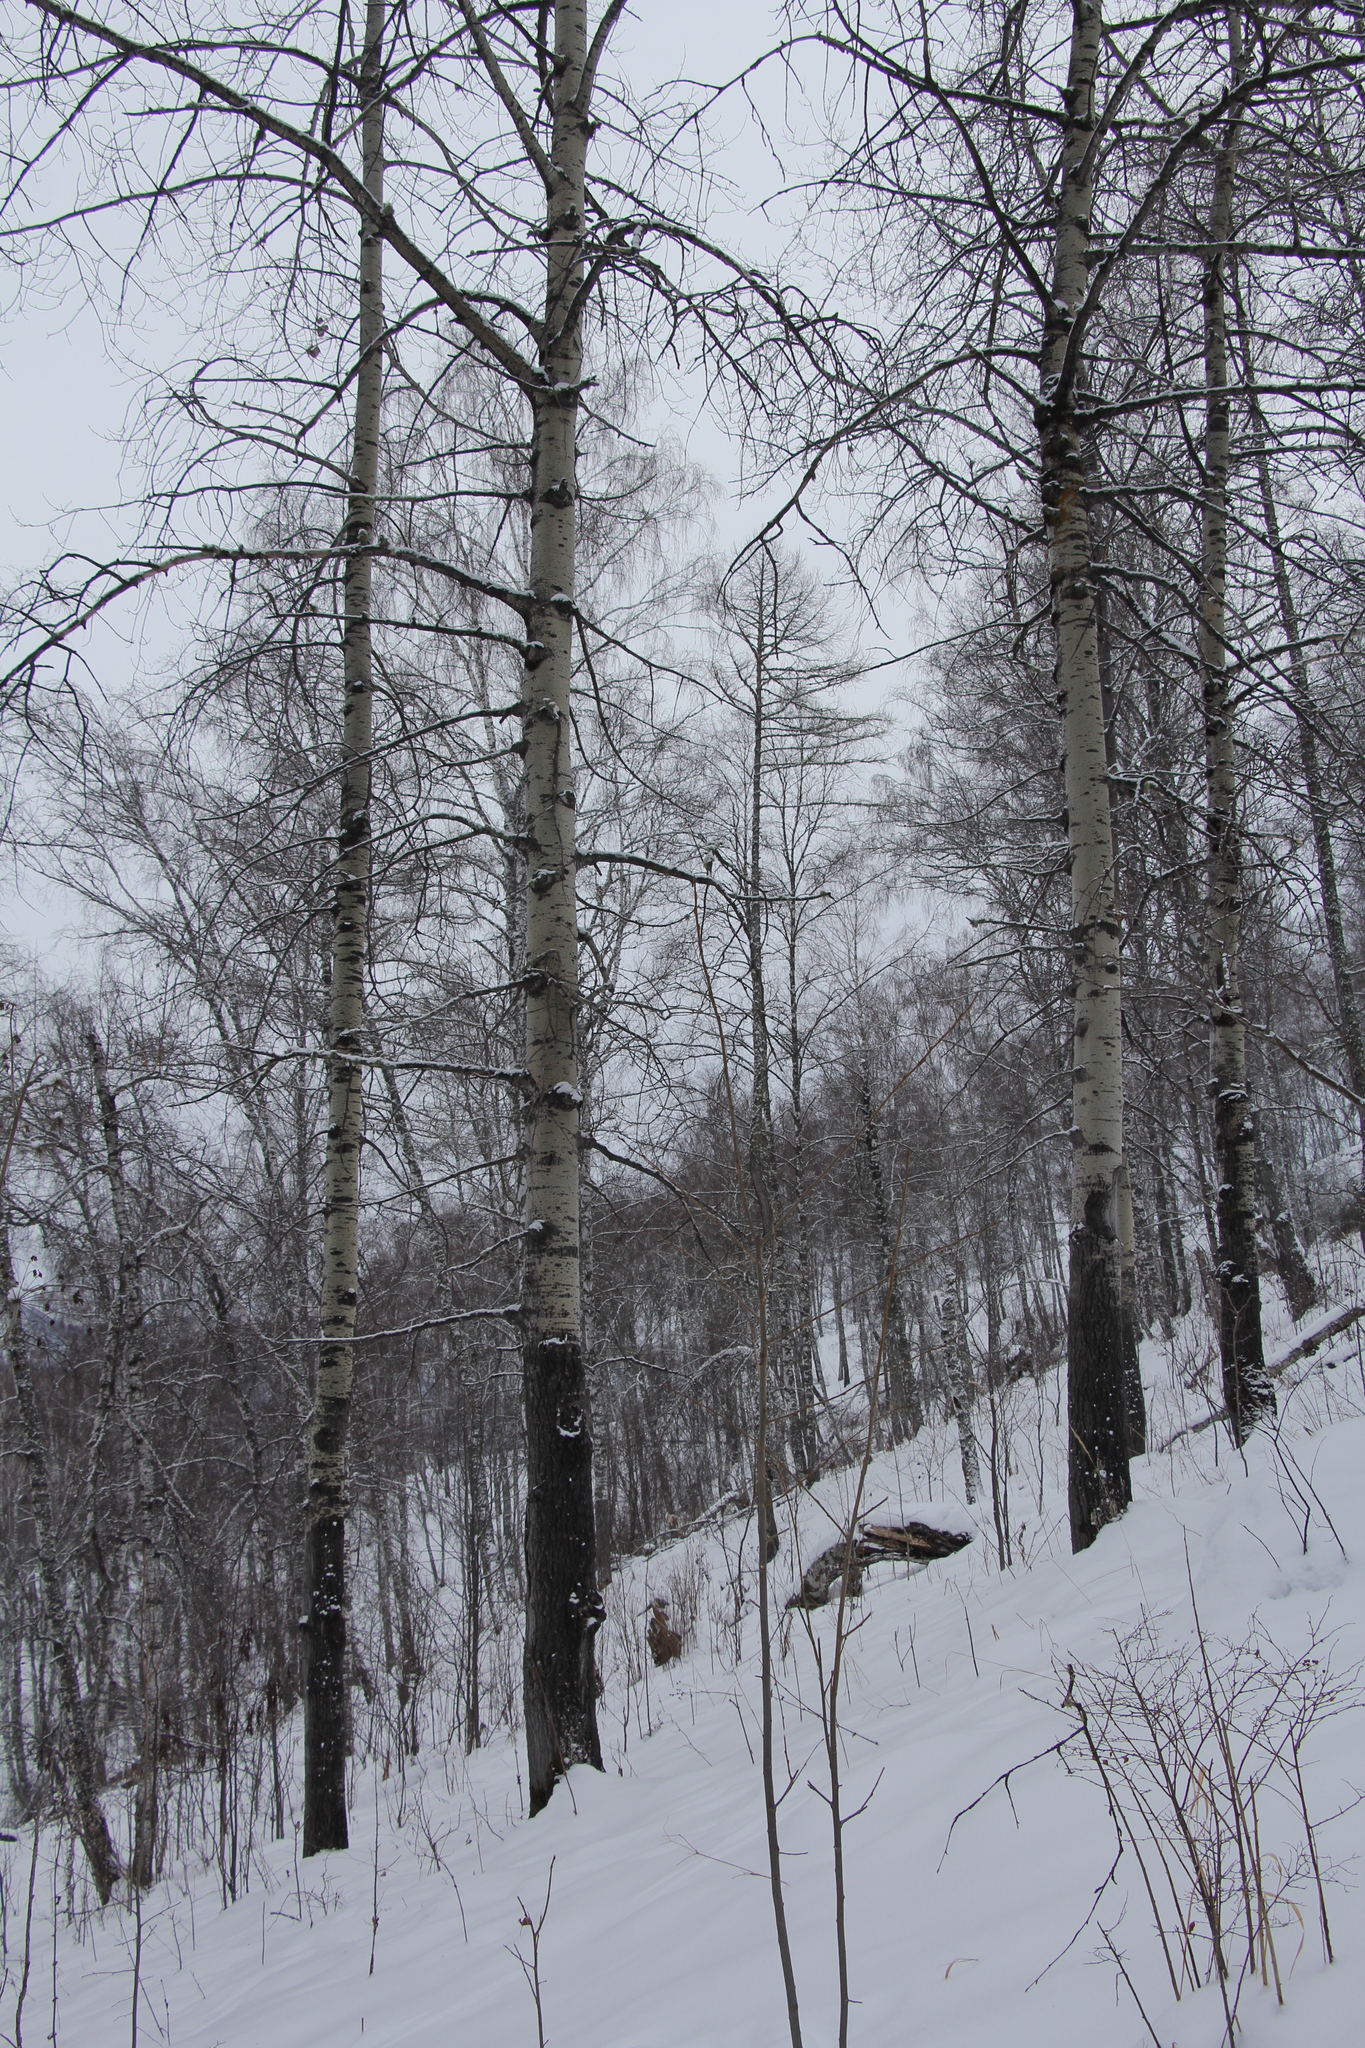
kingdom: Plantae
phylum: Tracheophyta
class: Magnoliopsida
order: Malpighiales
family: Salicaceae
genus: Populus
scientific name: Populus tremula
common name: European aspen
